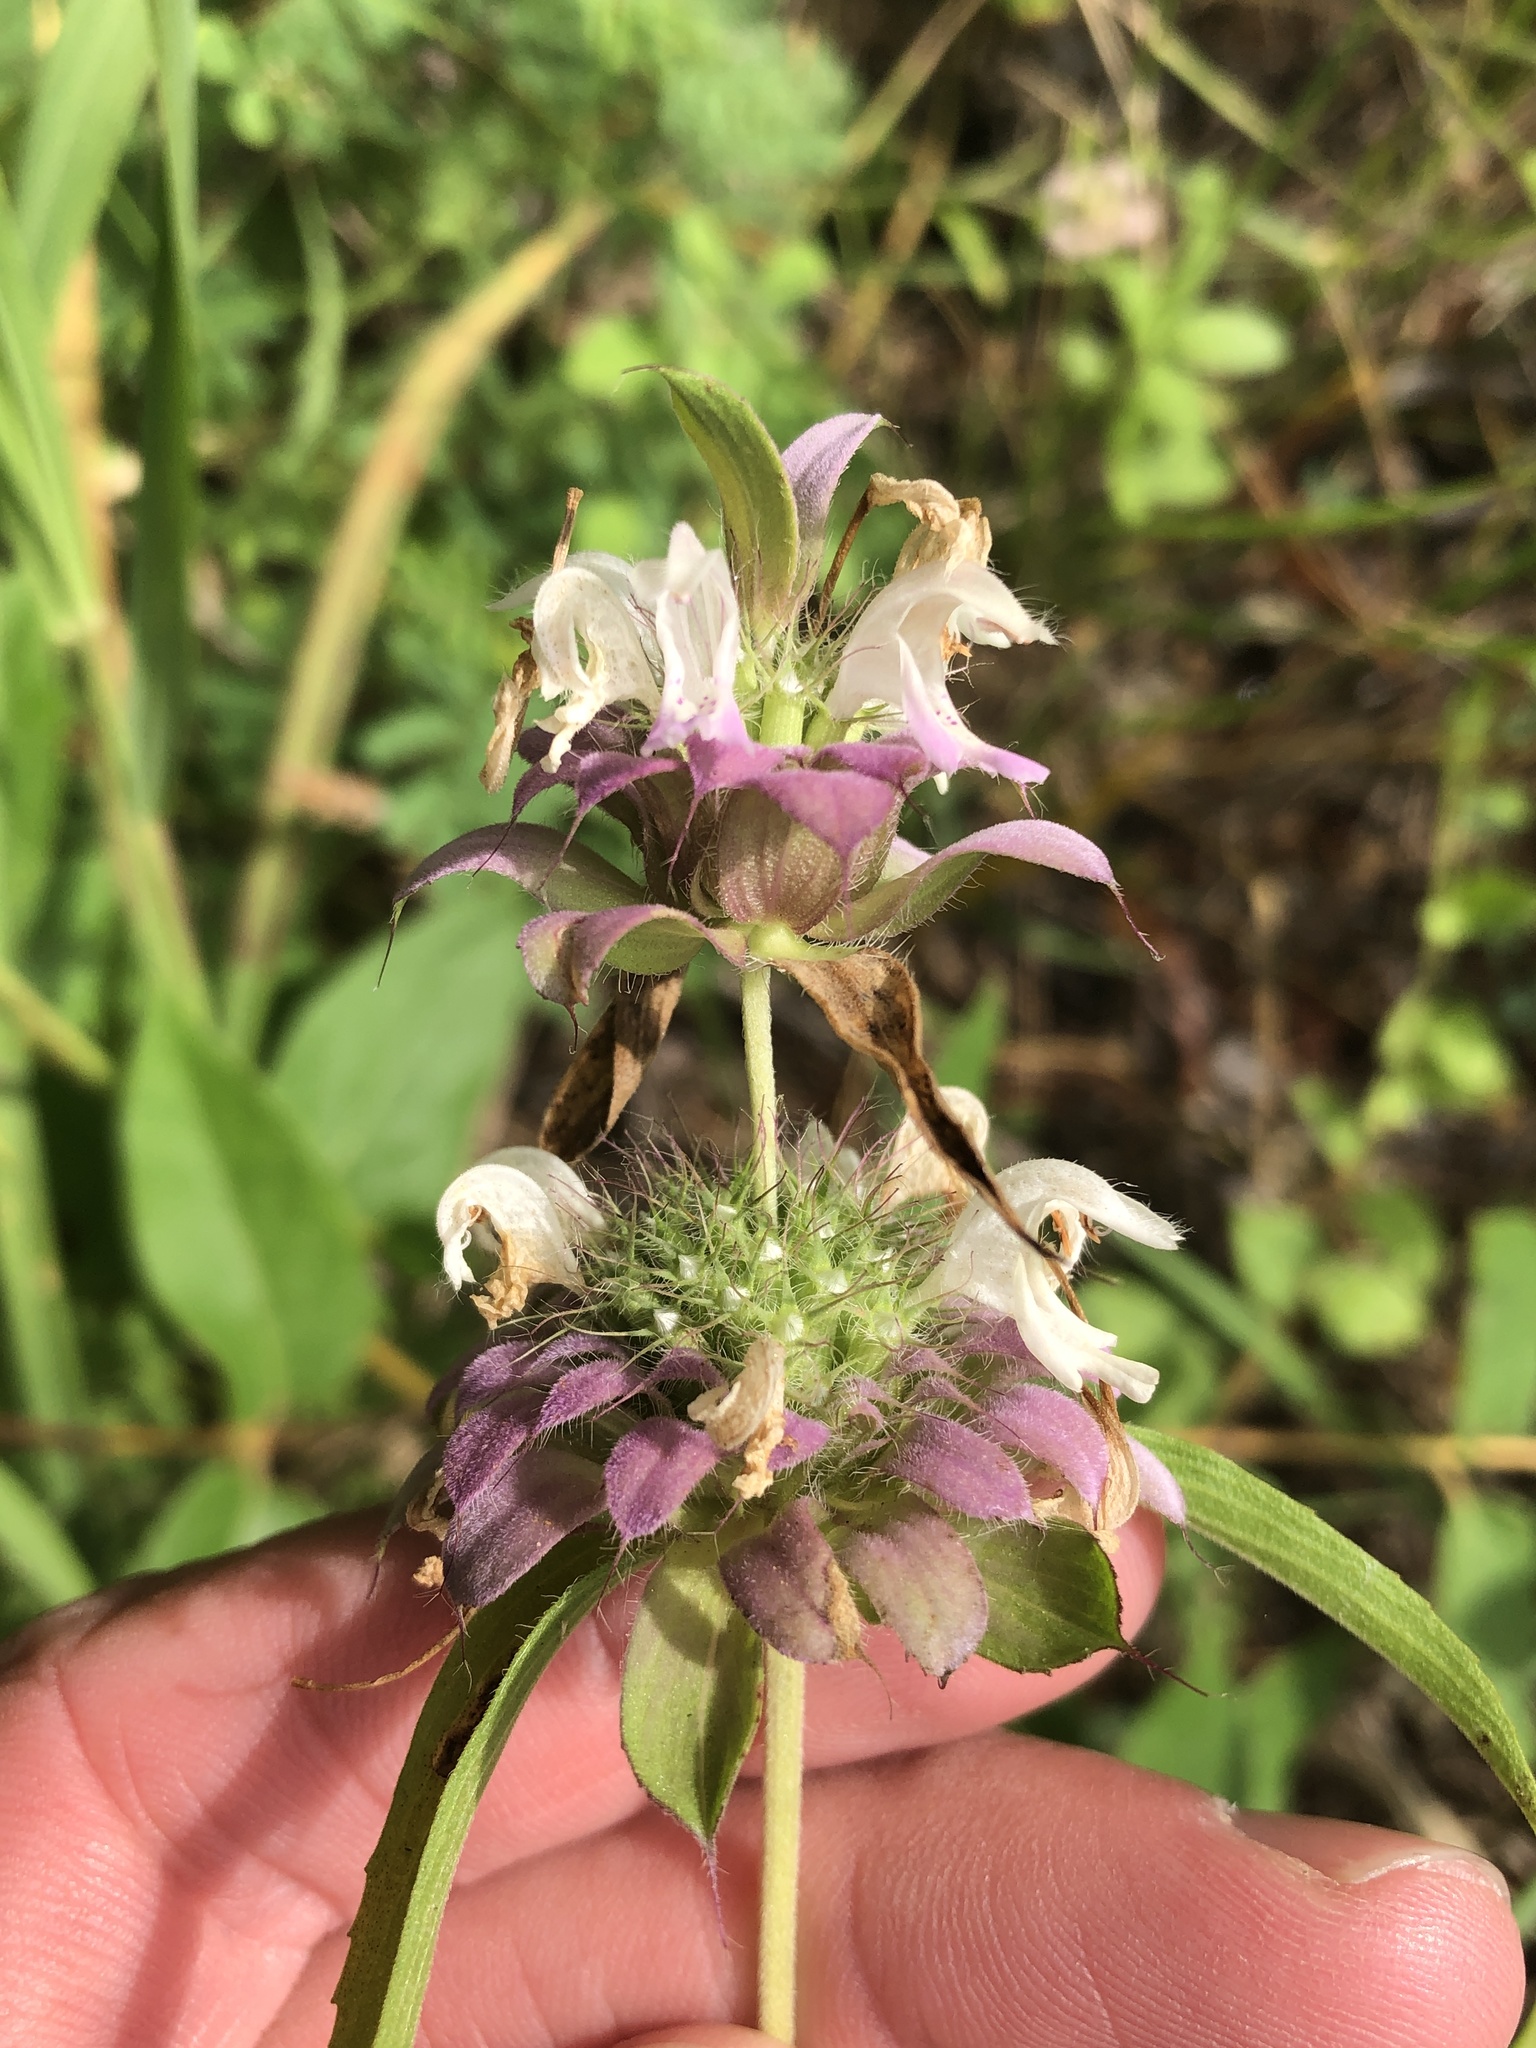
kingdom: Plantae
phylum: Tracheophyta
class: Magnoliopsida
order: Lamiales
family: Lamiaceae
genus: Monarda
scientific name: Monarda citriodora
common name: Lemon beebalm
